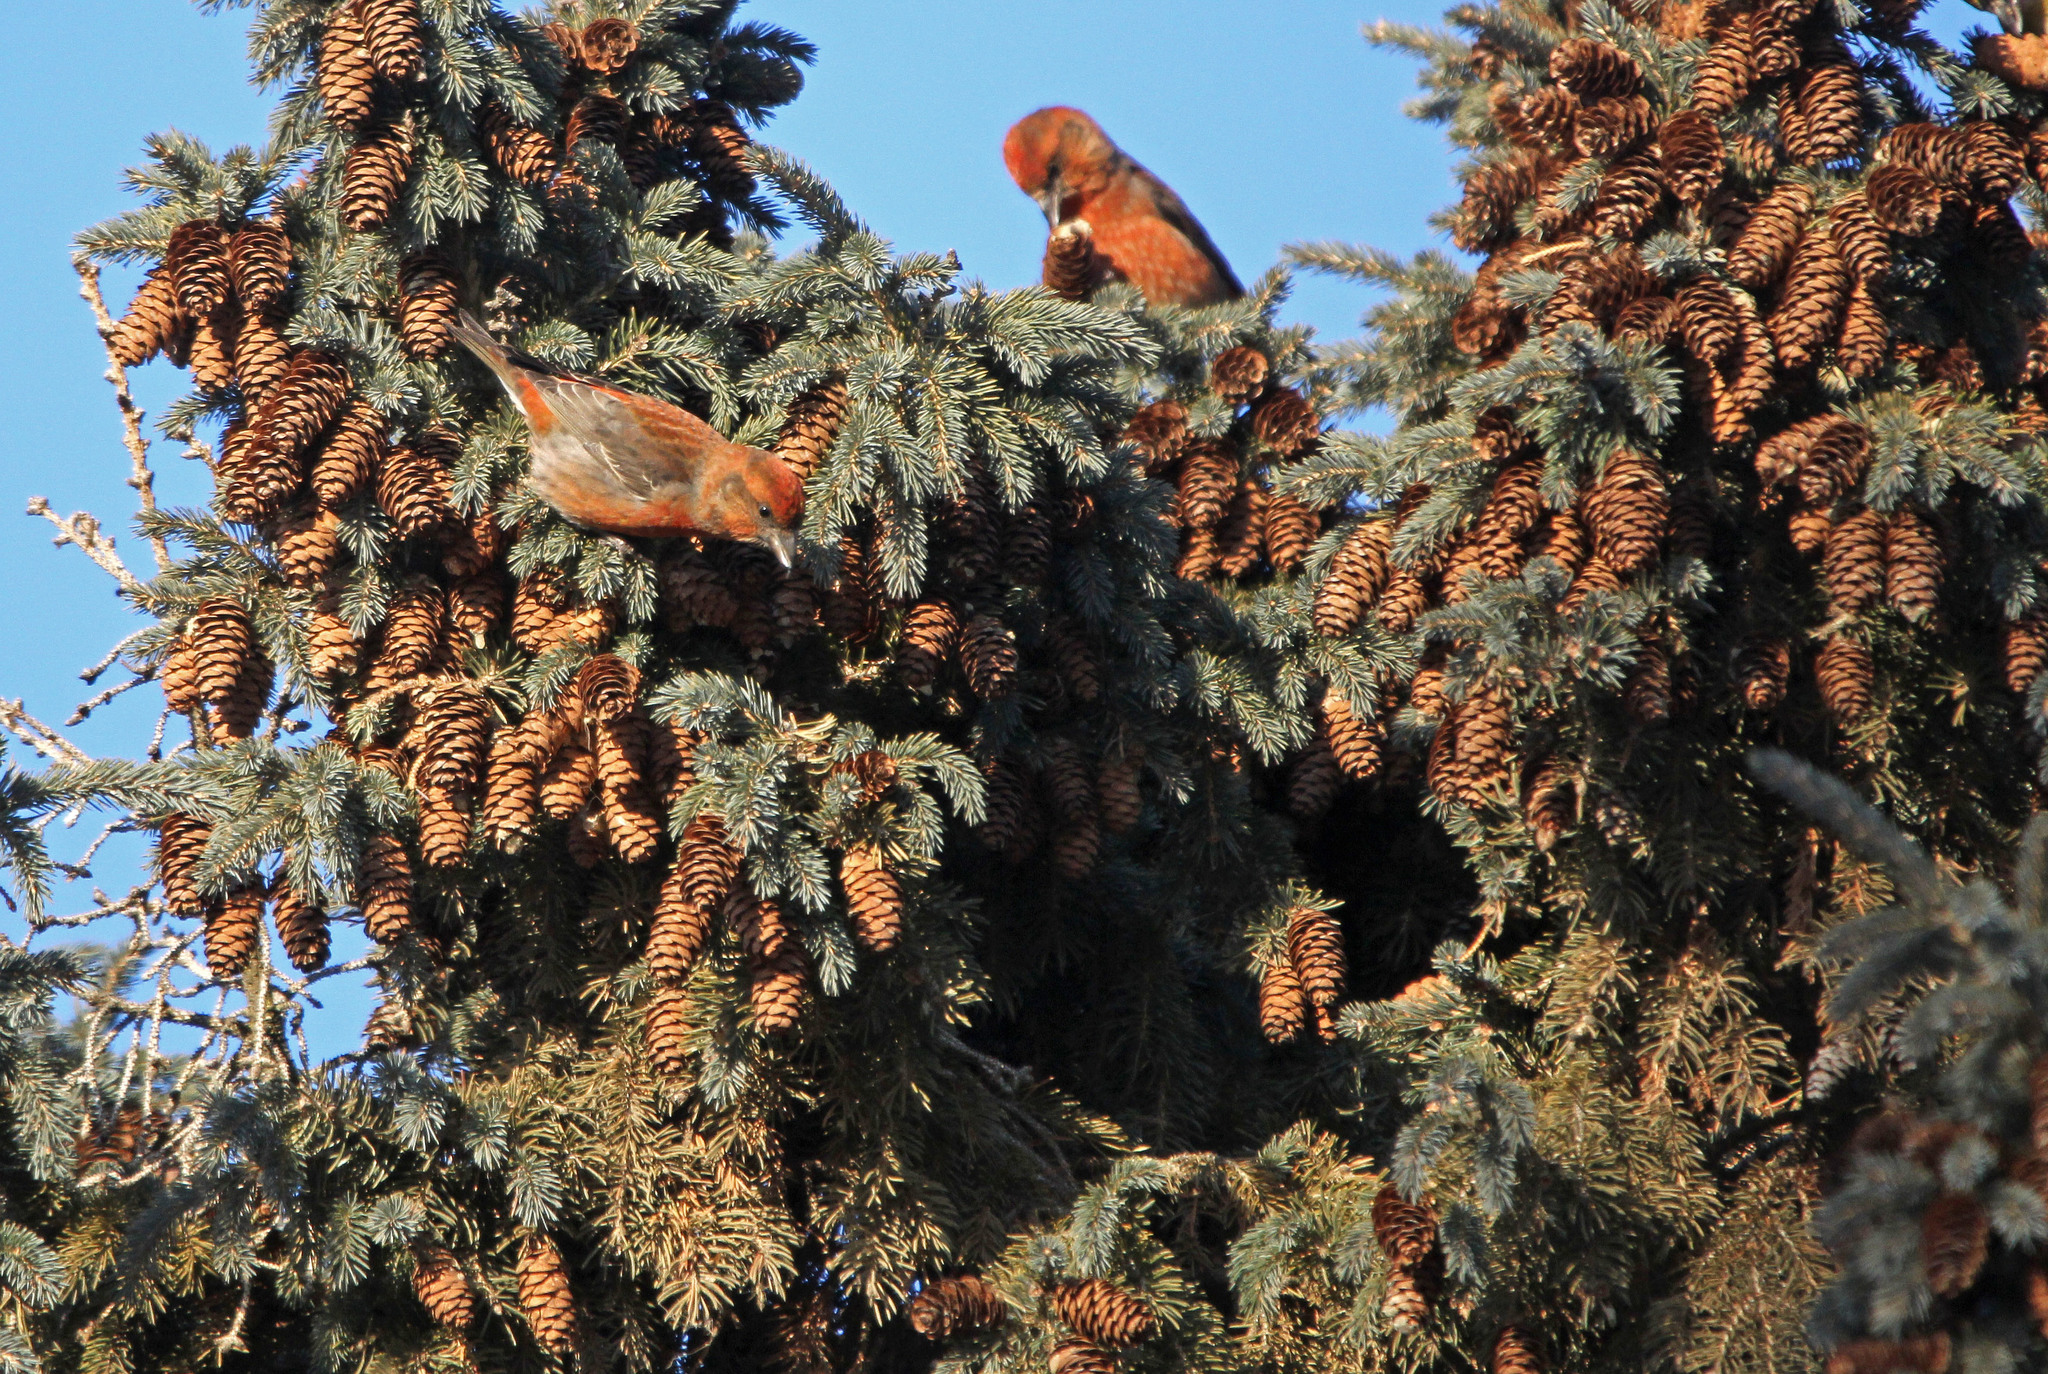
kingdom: Animalia
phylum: Chordata
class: Aves
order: Passeriformes
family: Fringillidae
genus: Loxia
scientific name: Loxia curvirostra
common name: Red crossbill
